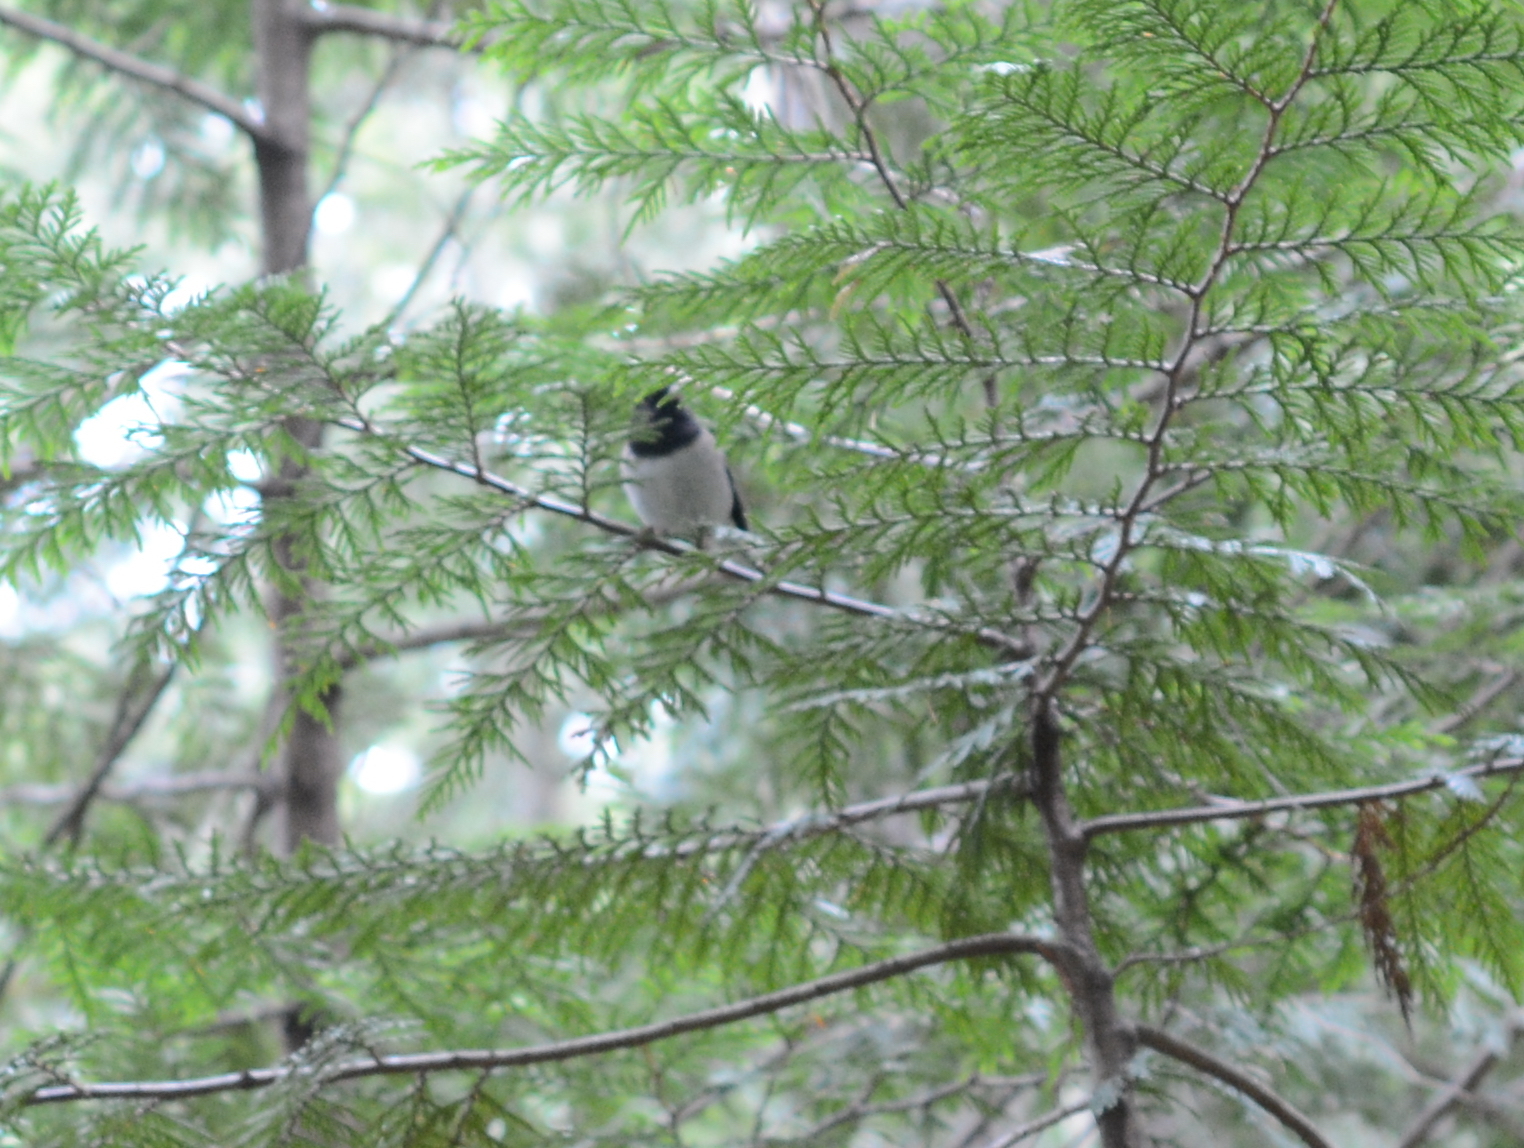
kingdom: Animalia
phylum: Chordata
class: Aves
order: Passeriformes
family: Passerellidae
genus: Junco
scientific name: Junco hyemalis
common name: Dark-eyed junco
